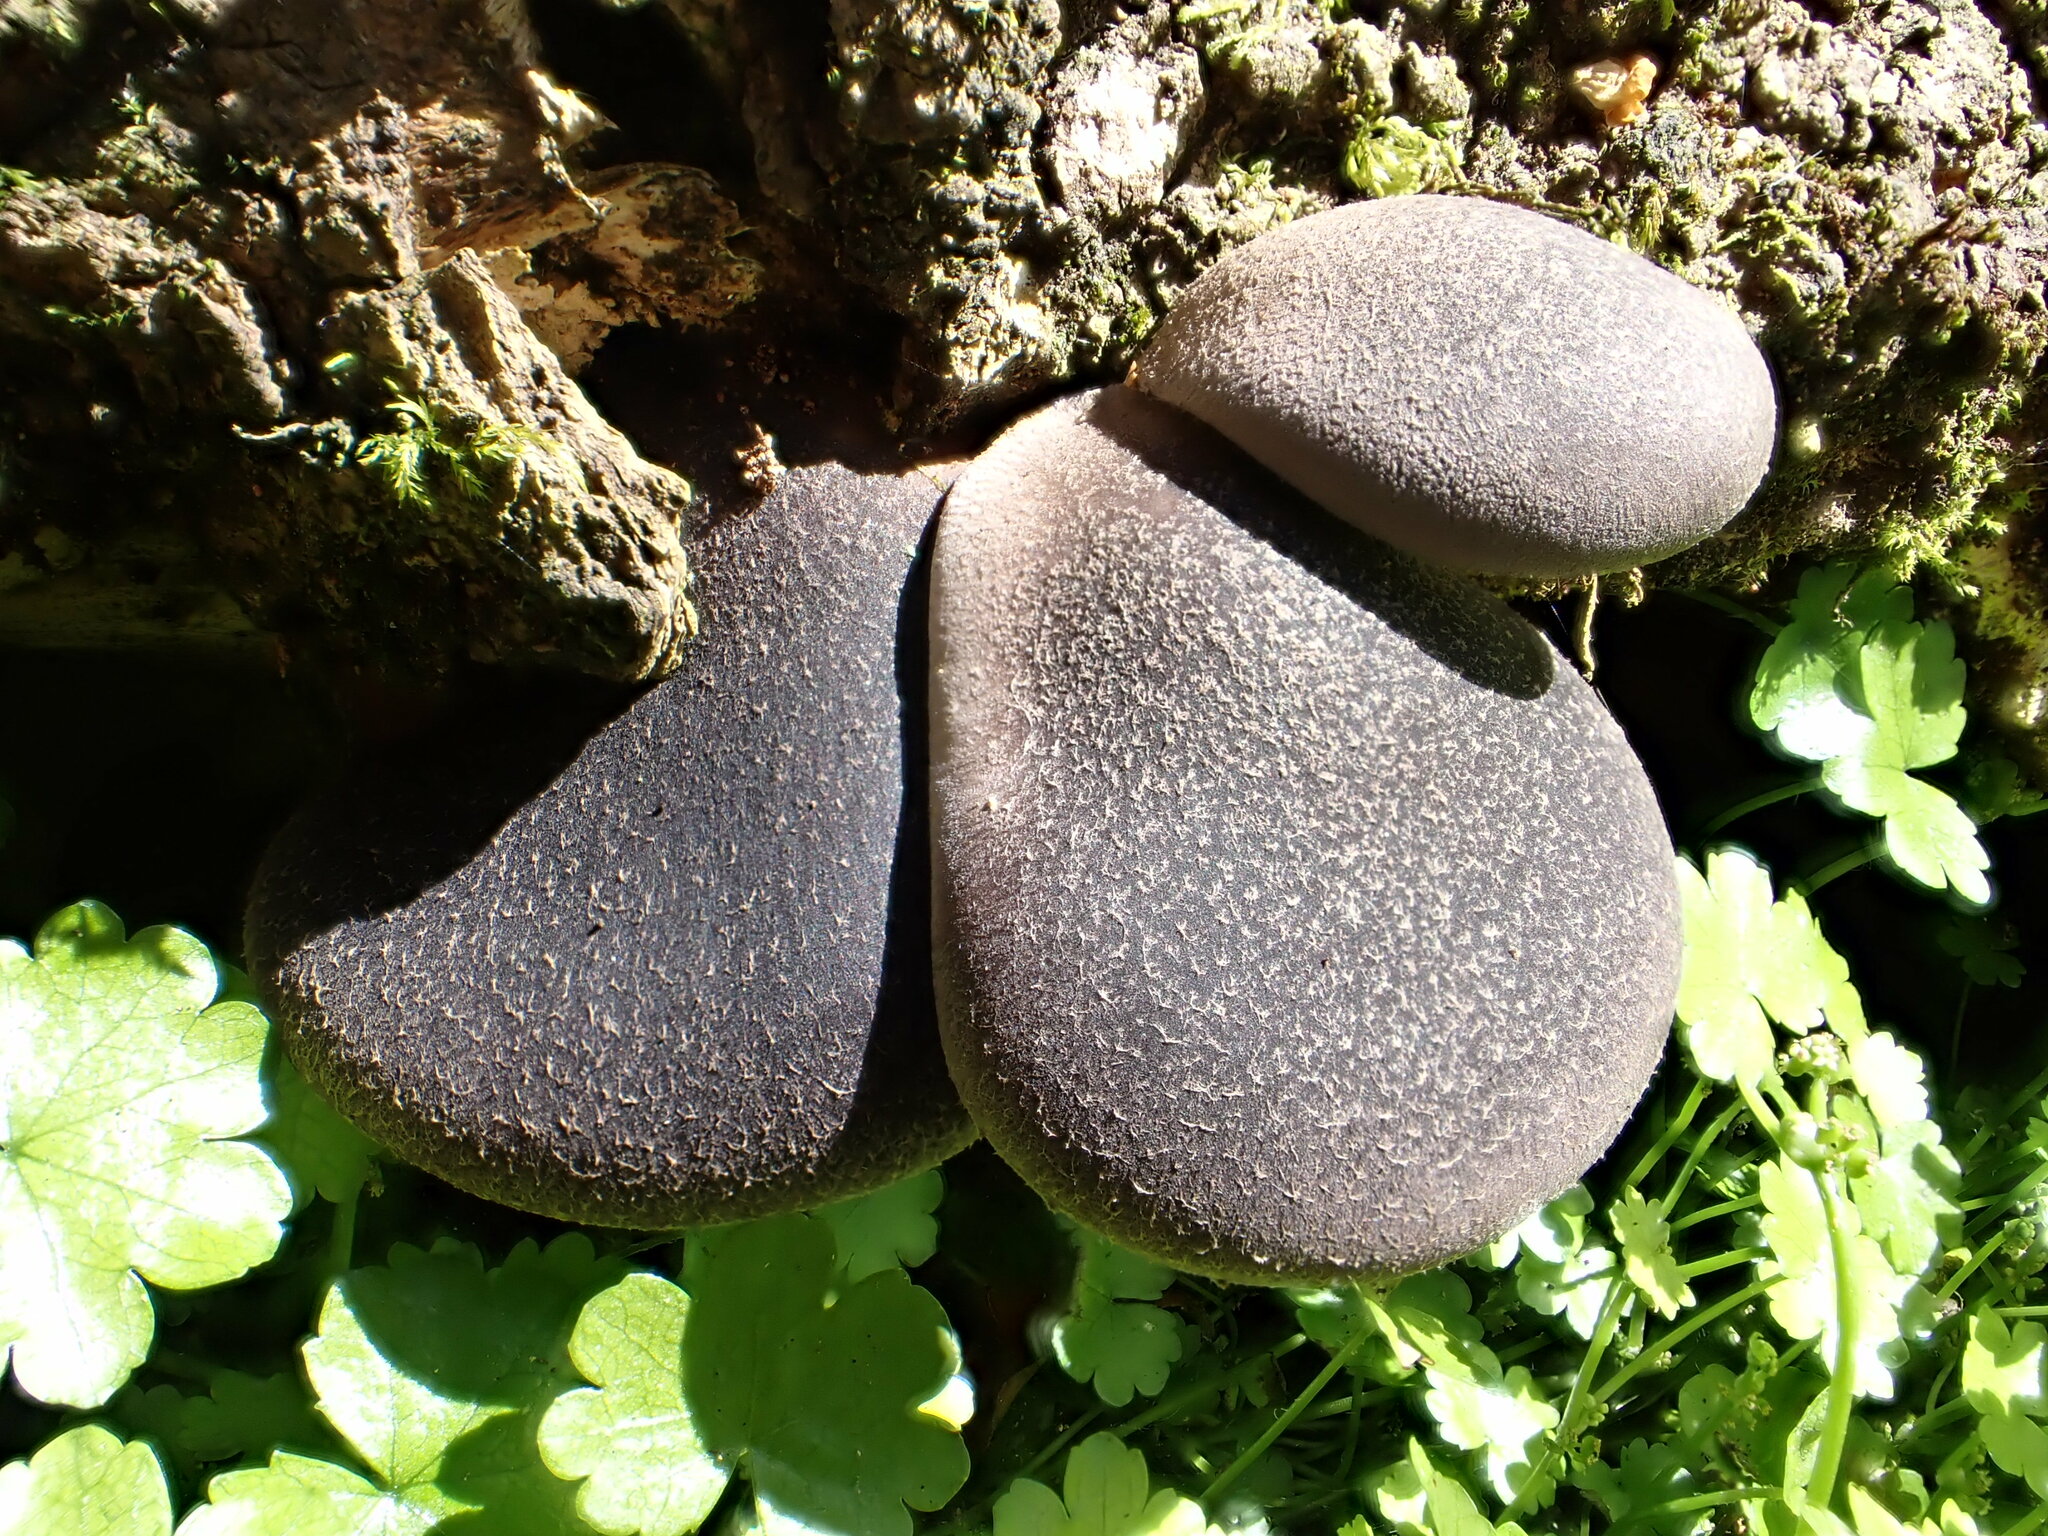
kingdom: Fungi
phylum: Basidiomycota
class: Agaricomycetes
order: Agaricales
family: Pleurotaceae
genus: Pleurotus
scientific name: Pleurotus australis
